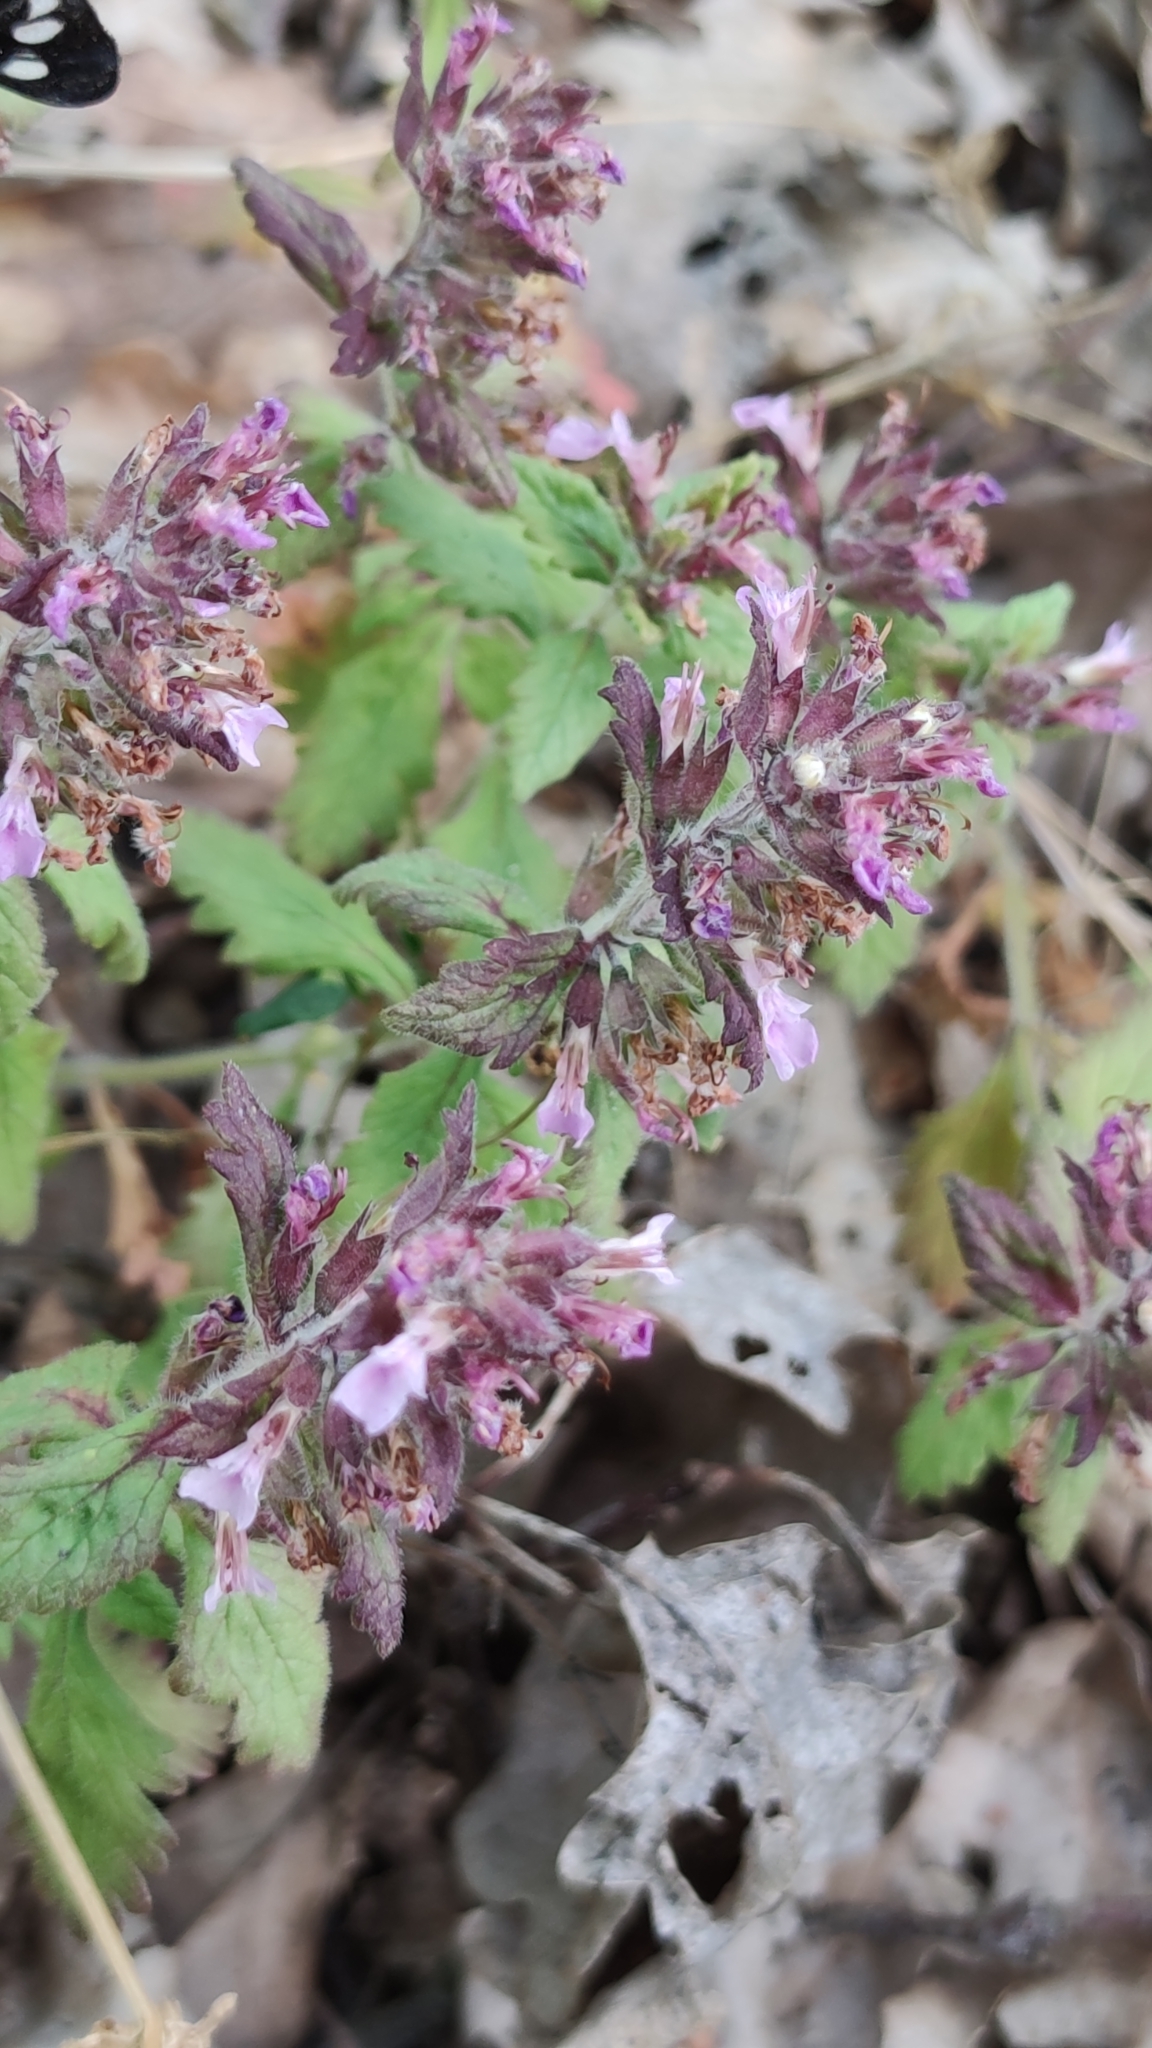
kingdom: Plantae
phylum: Tracheophyta
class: Magnoliopsida
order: Lamiales
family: Lamiaceae
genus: Teucrium
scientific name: Teucrium chamaedrys
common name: Wall germander
